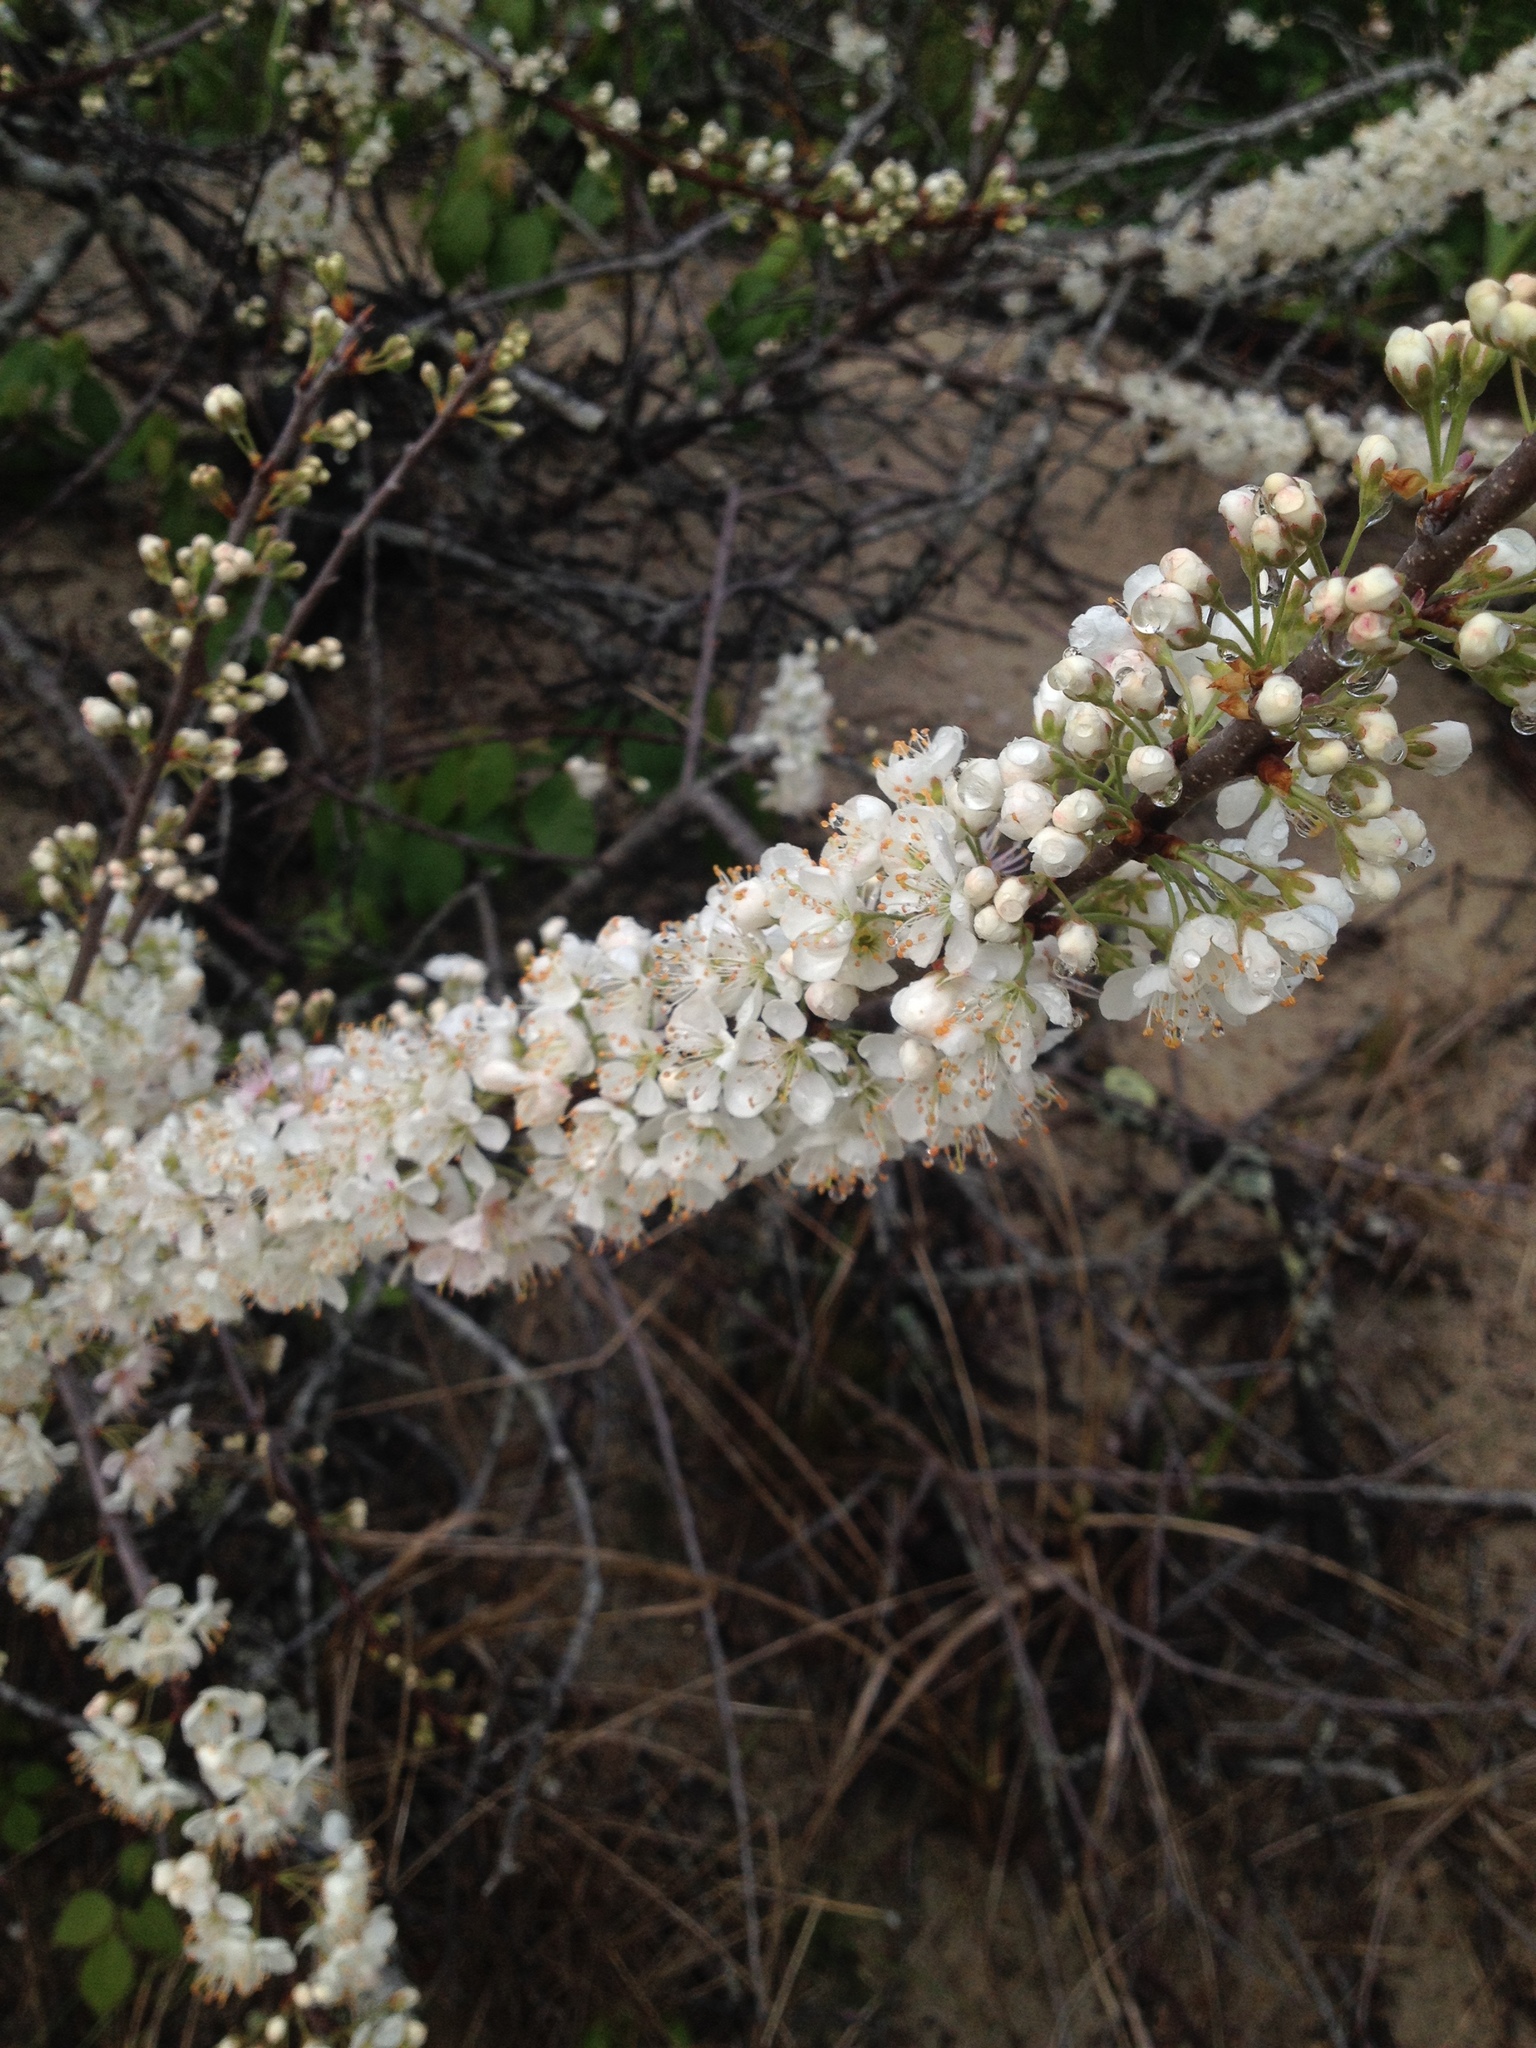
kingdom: Plantae
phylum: Tracheophyta
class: Magnoliopsida
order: Rosales
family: Rosaceae
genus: Prunus
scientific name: Prunus maritima
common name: Beach plum
